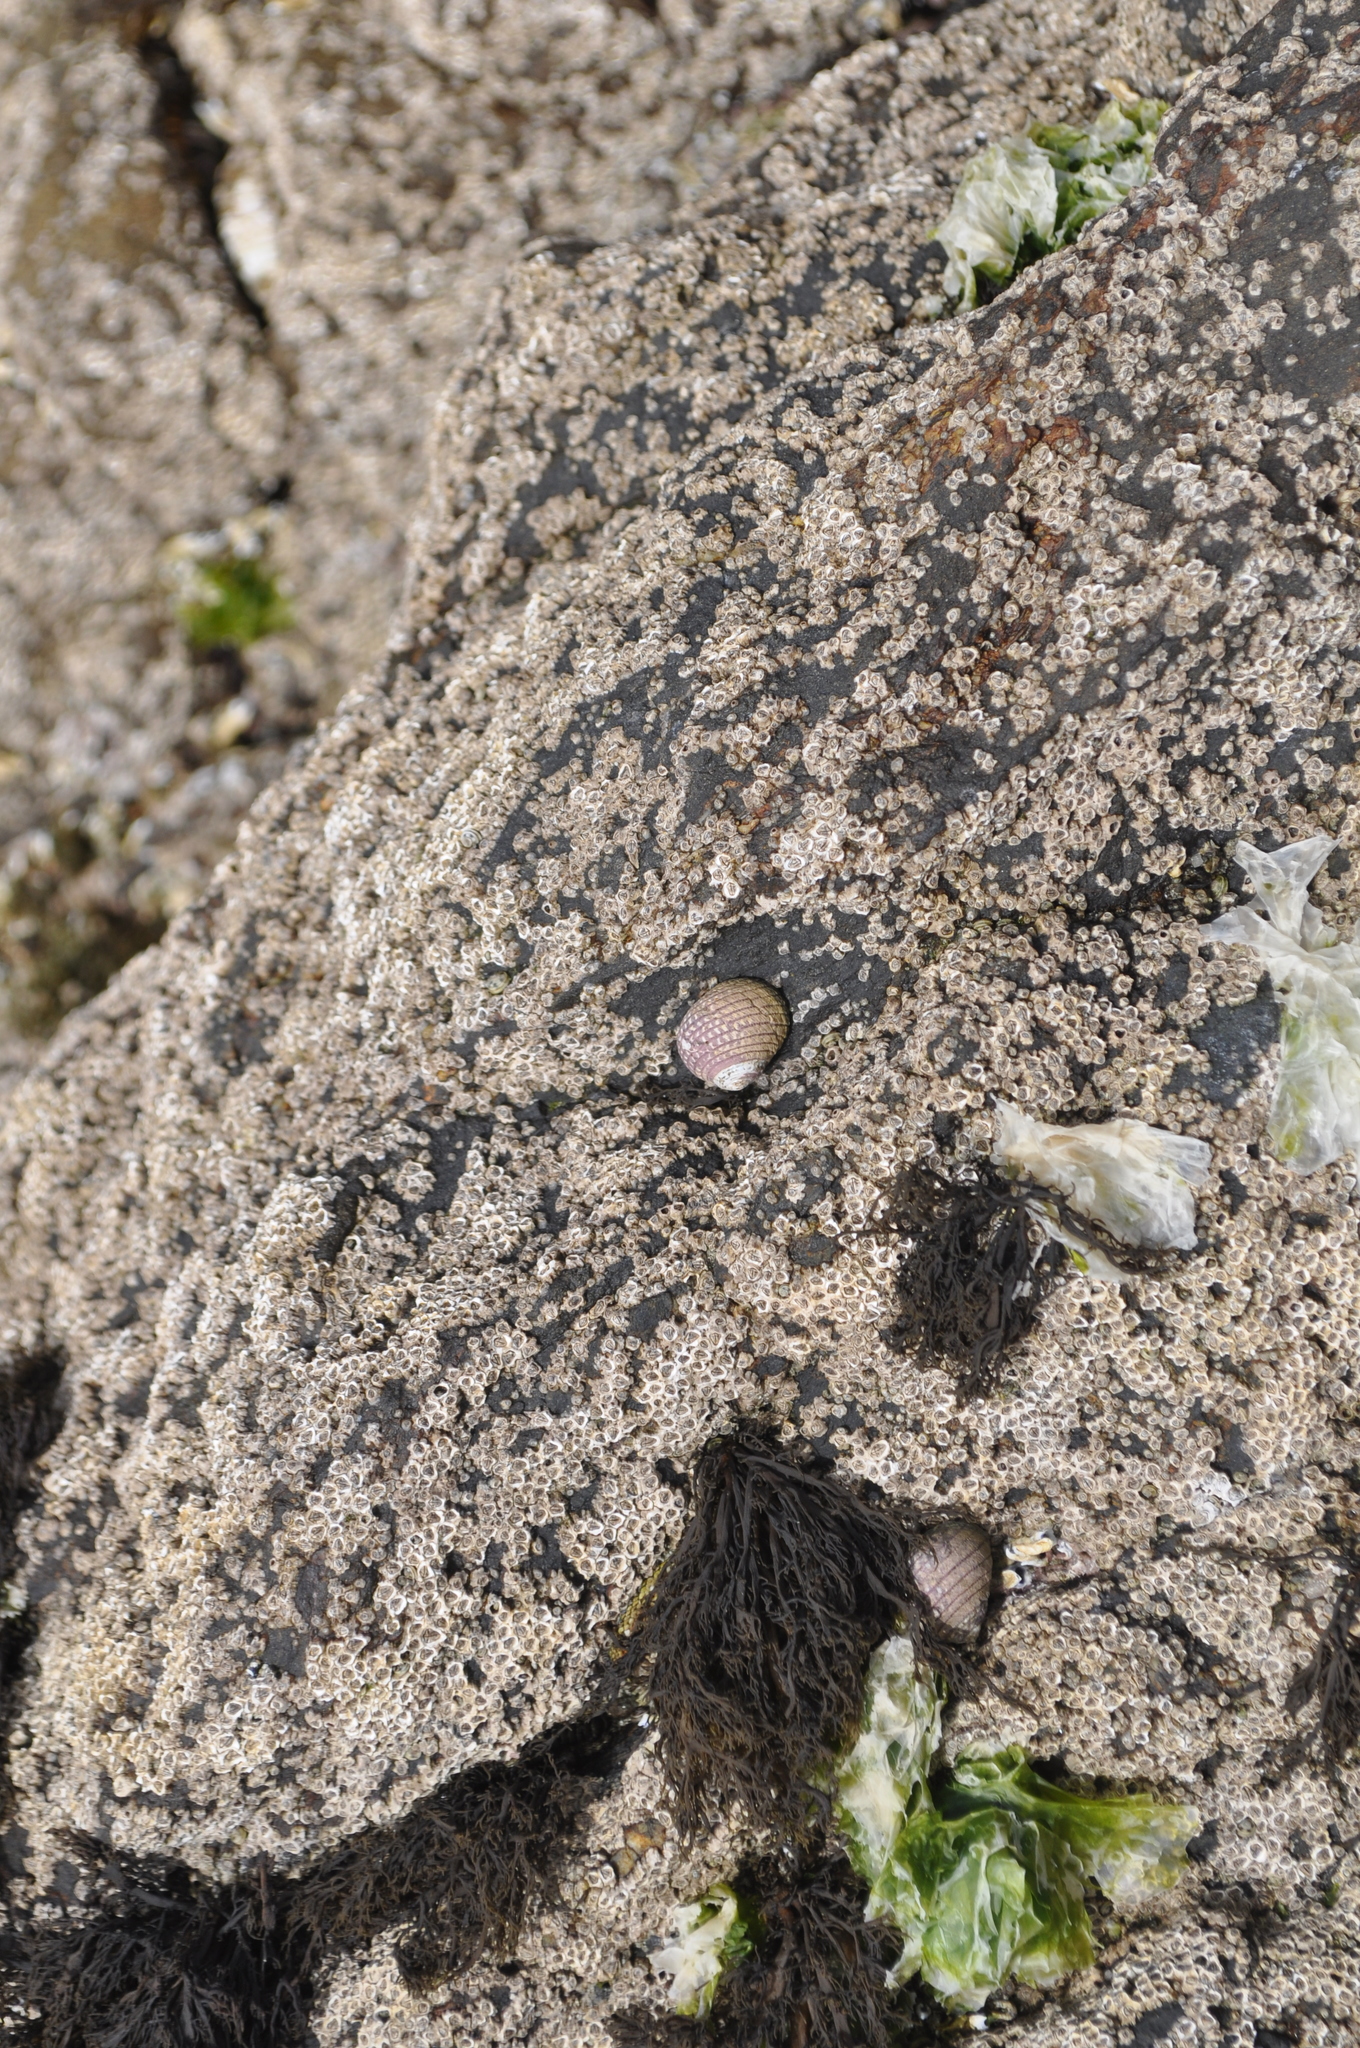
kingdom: Animalia
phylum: Mollusca
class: Gastropoda
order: Trochida
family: Trochidae
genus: Diloma
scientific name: Diloma aethiops
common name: Scorched monodont
